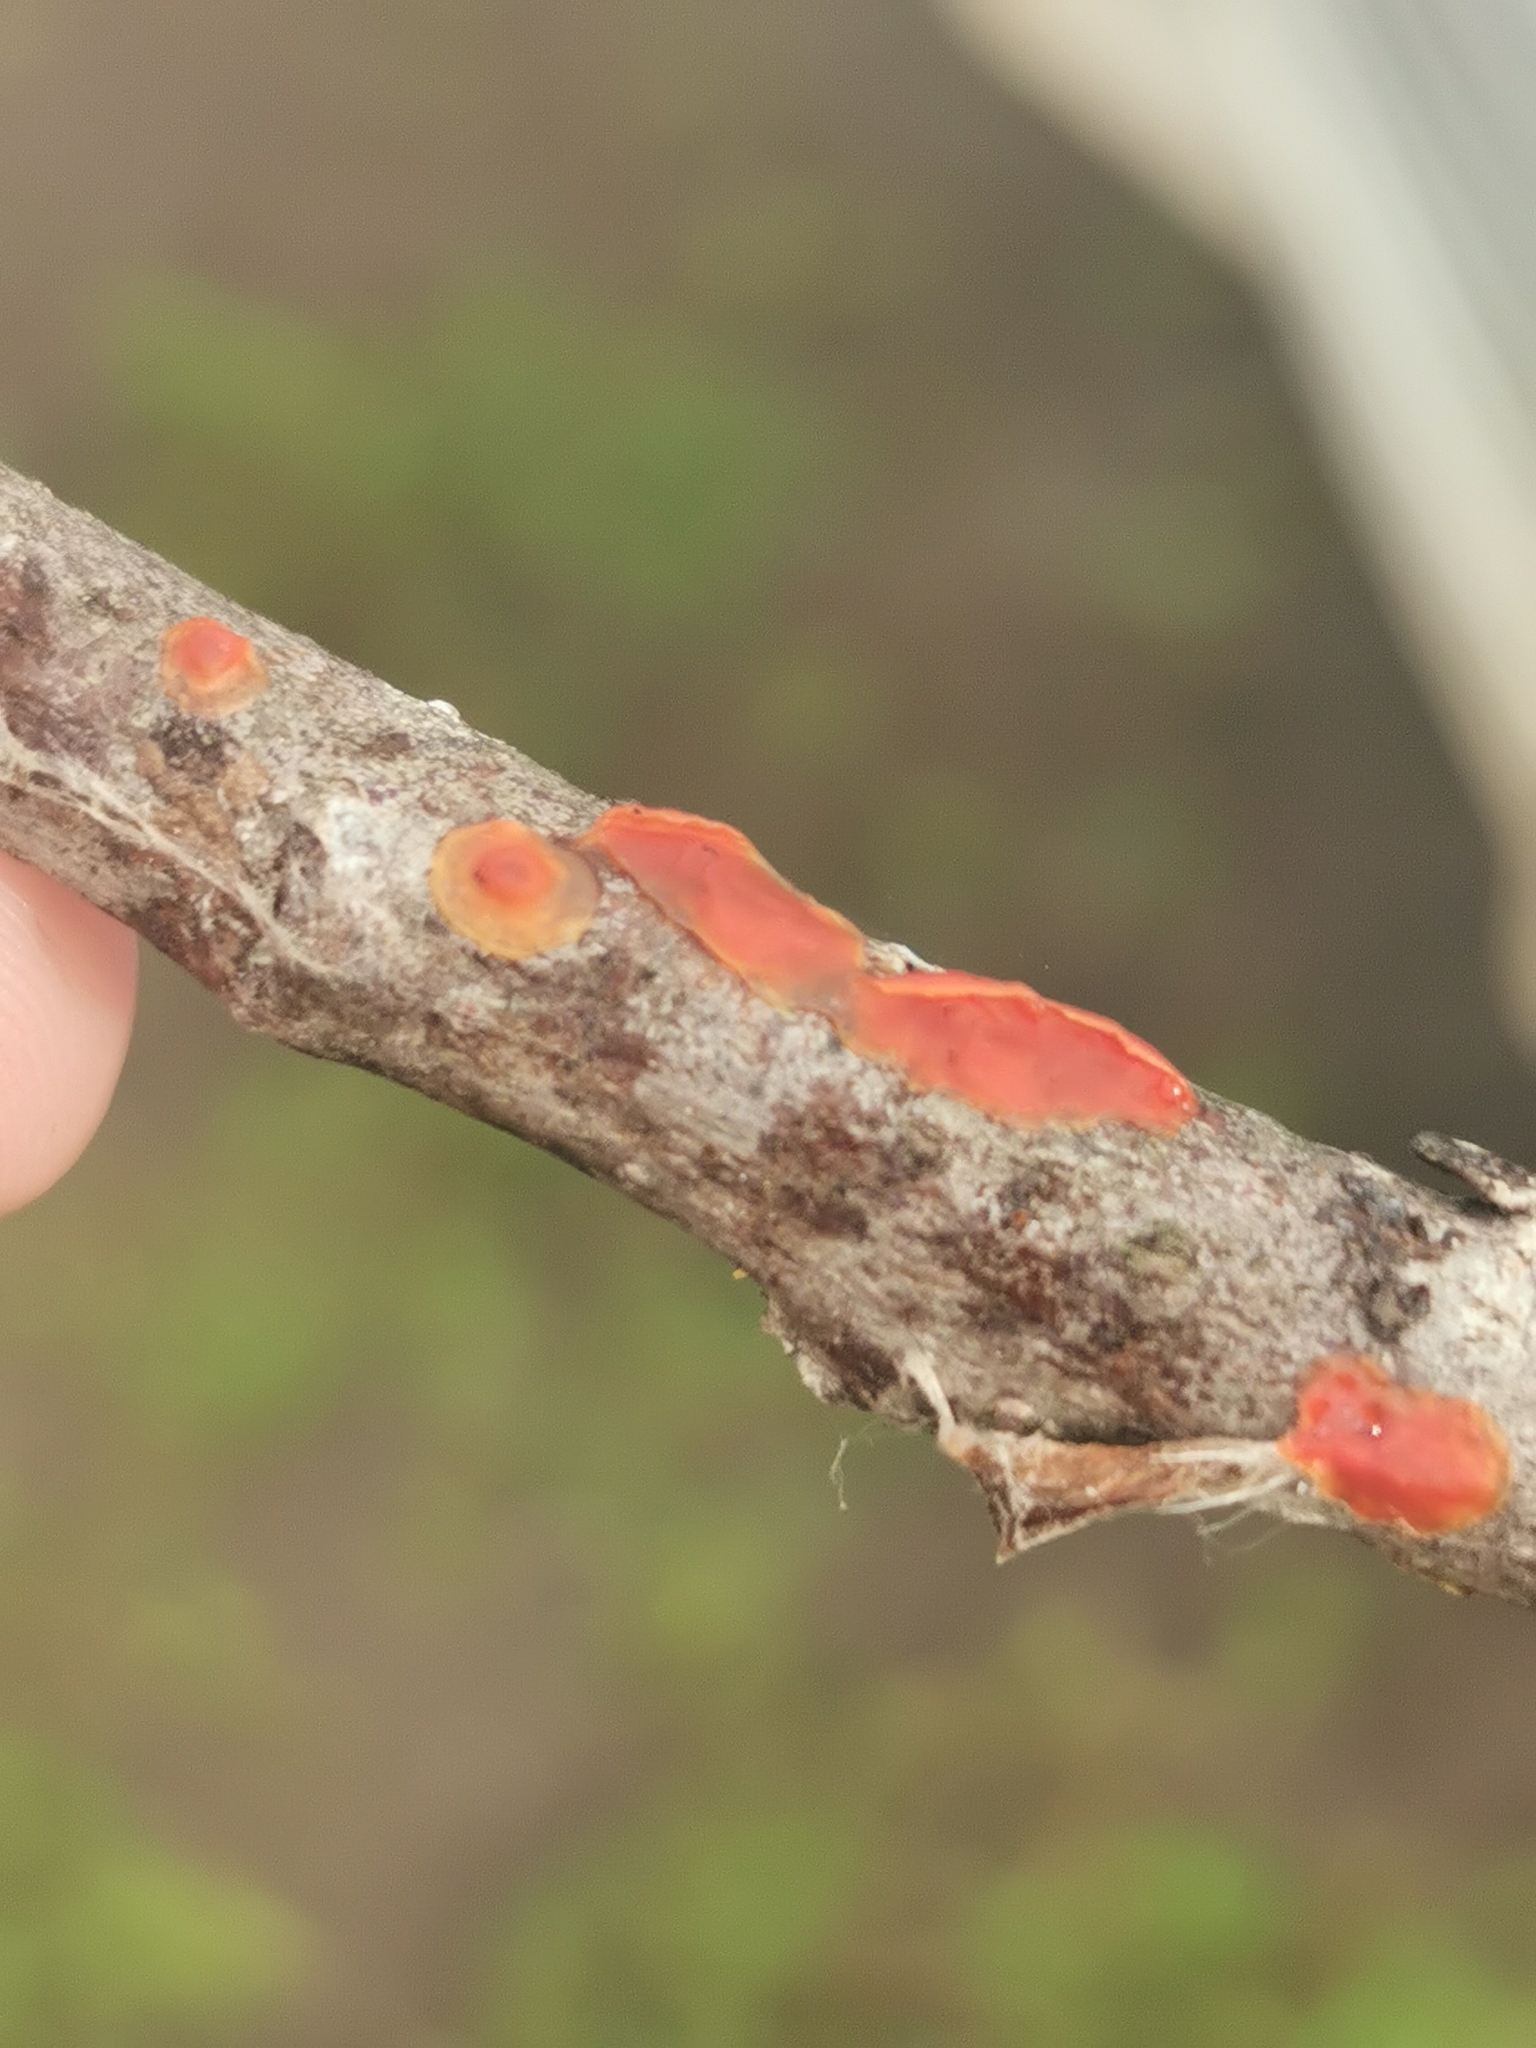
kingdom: Fungi
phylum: Basidiomycota
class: Agaricomycetes
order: Corticiales
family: Vuilleminiaceae
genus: Cytidia
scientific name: Cytidia salicina
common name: Scarlet splash
